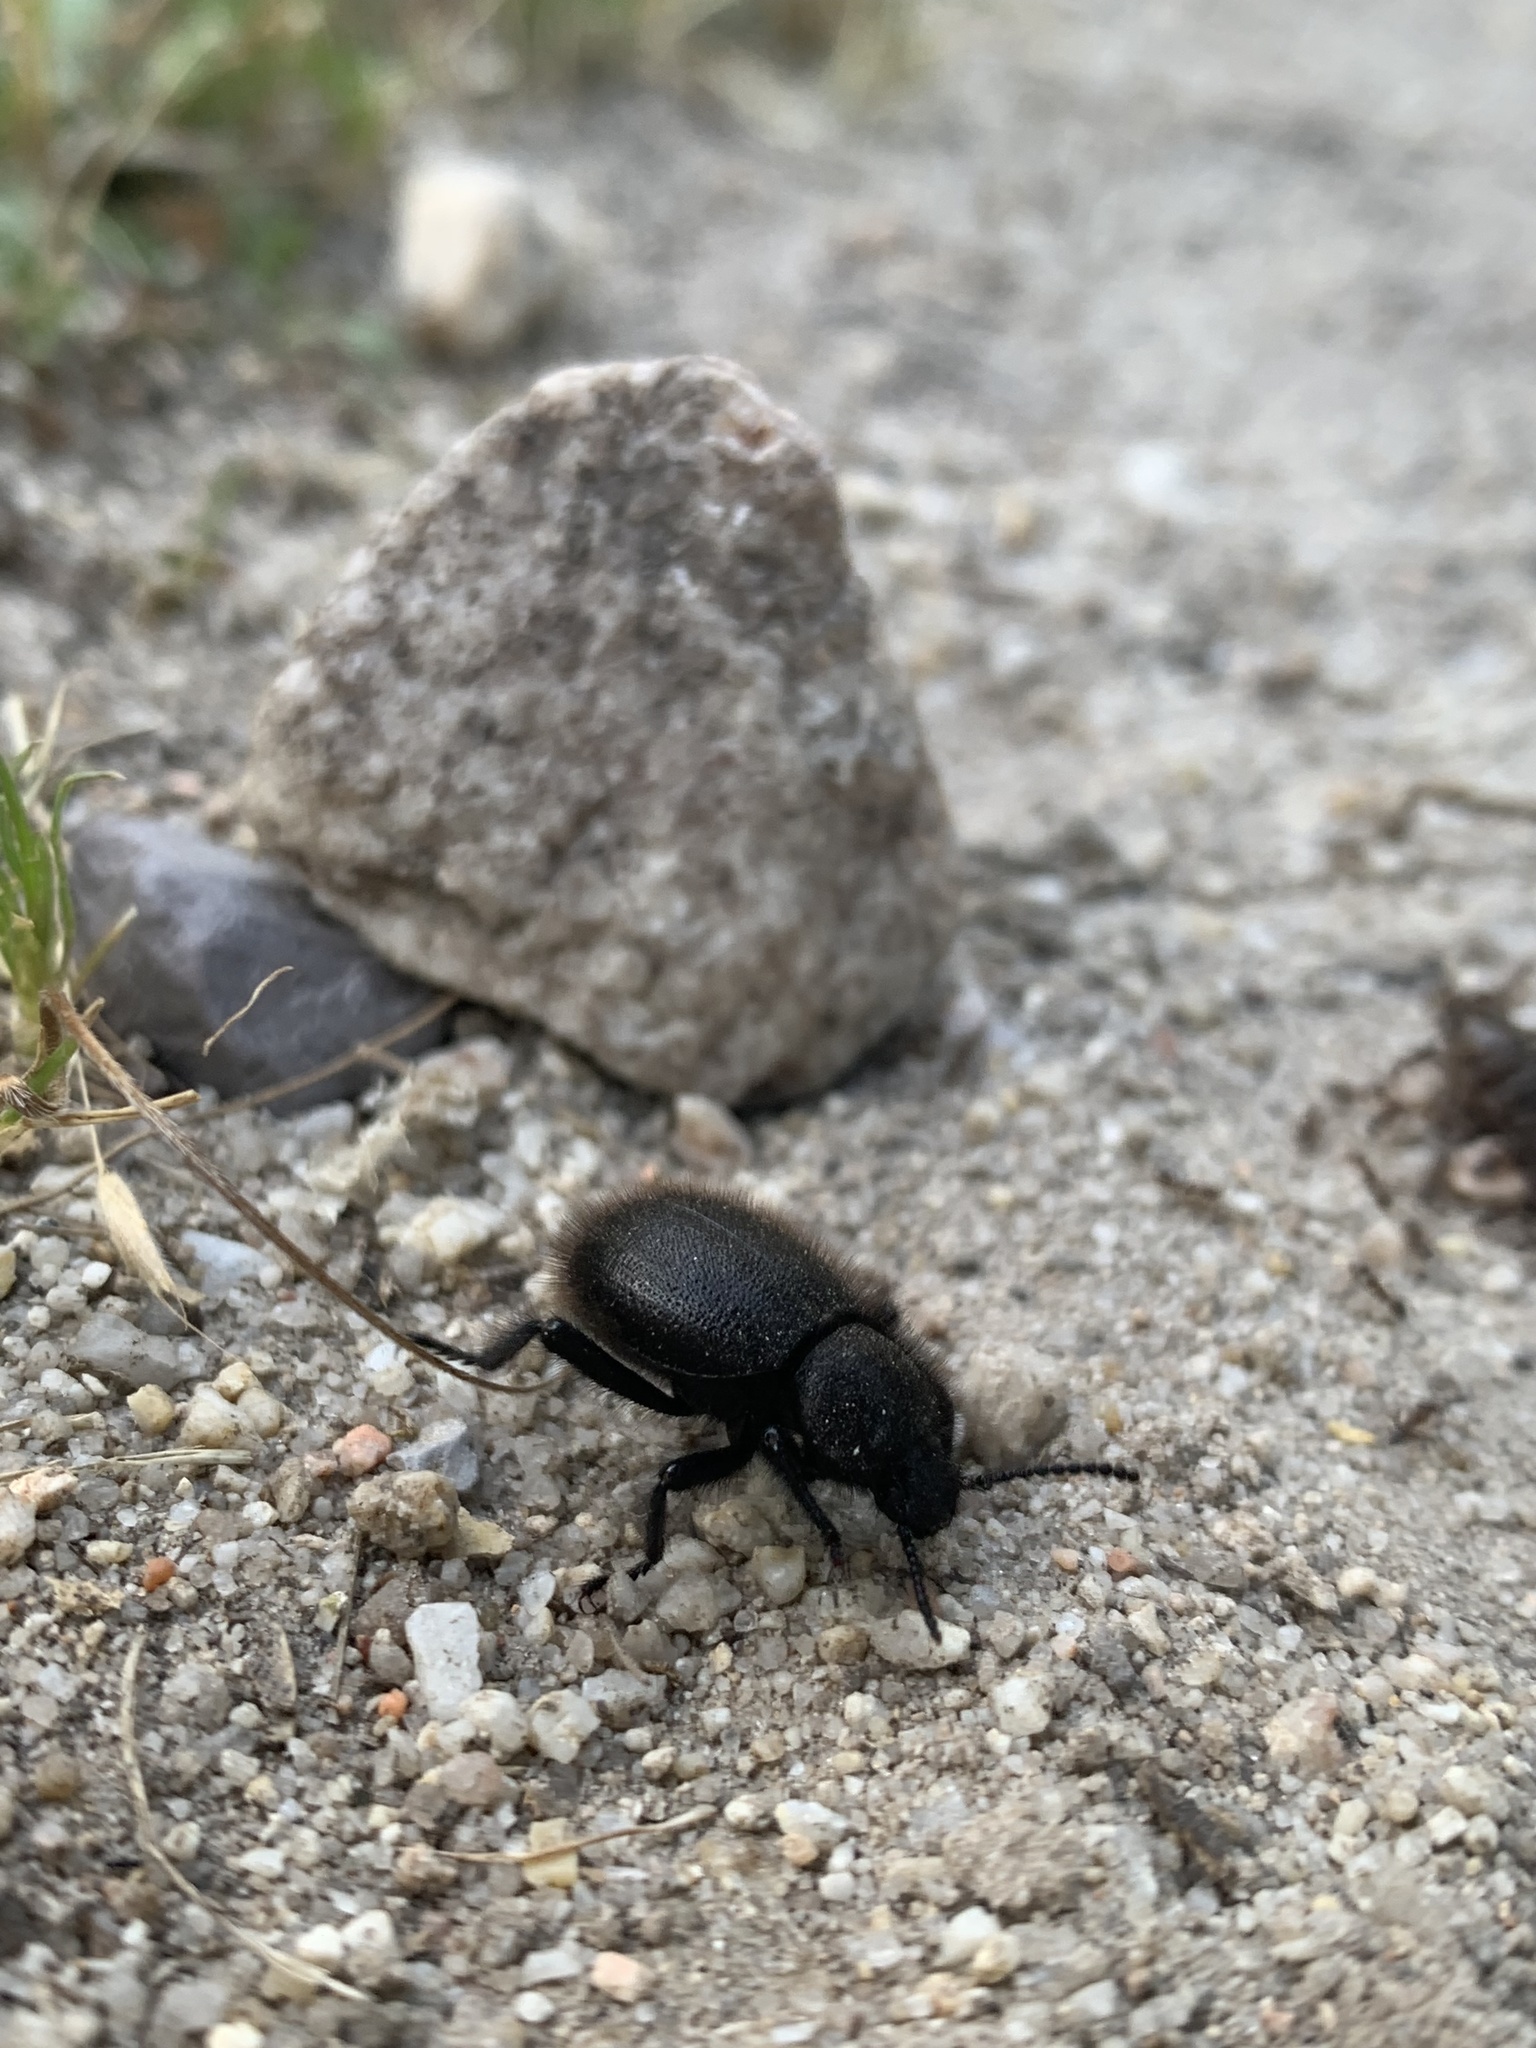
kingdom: Animalia
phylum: Arthropoda
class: Insecta
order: Coleoptera
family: Tenebrionidae
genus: Eleodes
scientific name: Eleodes osculans
